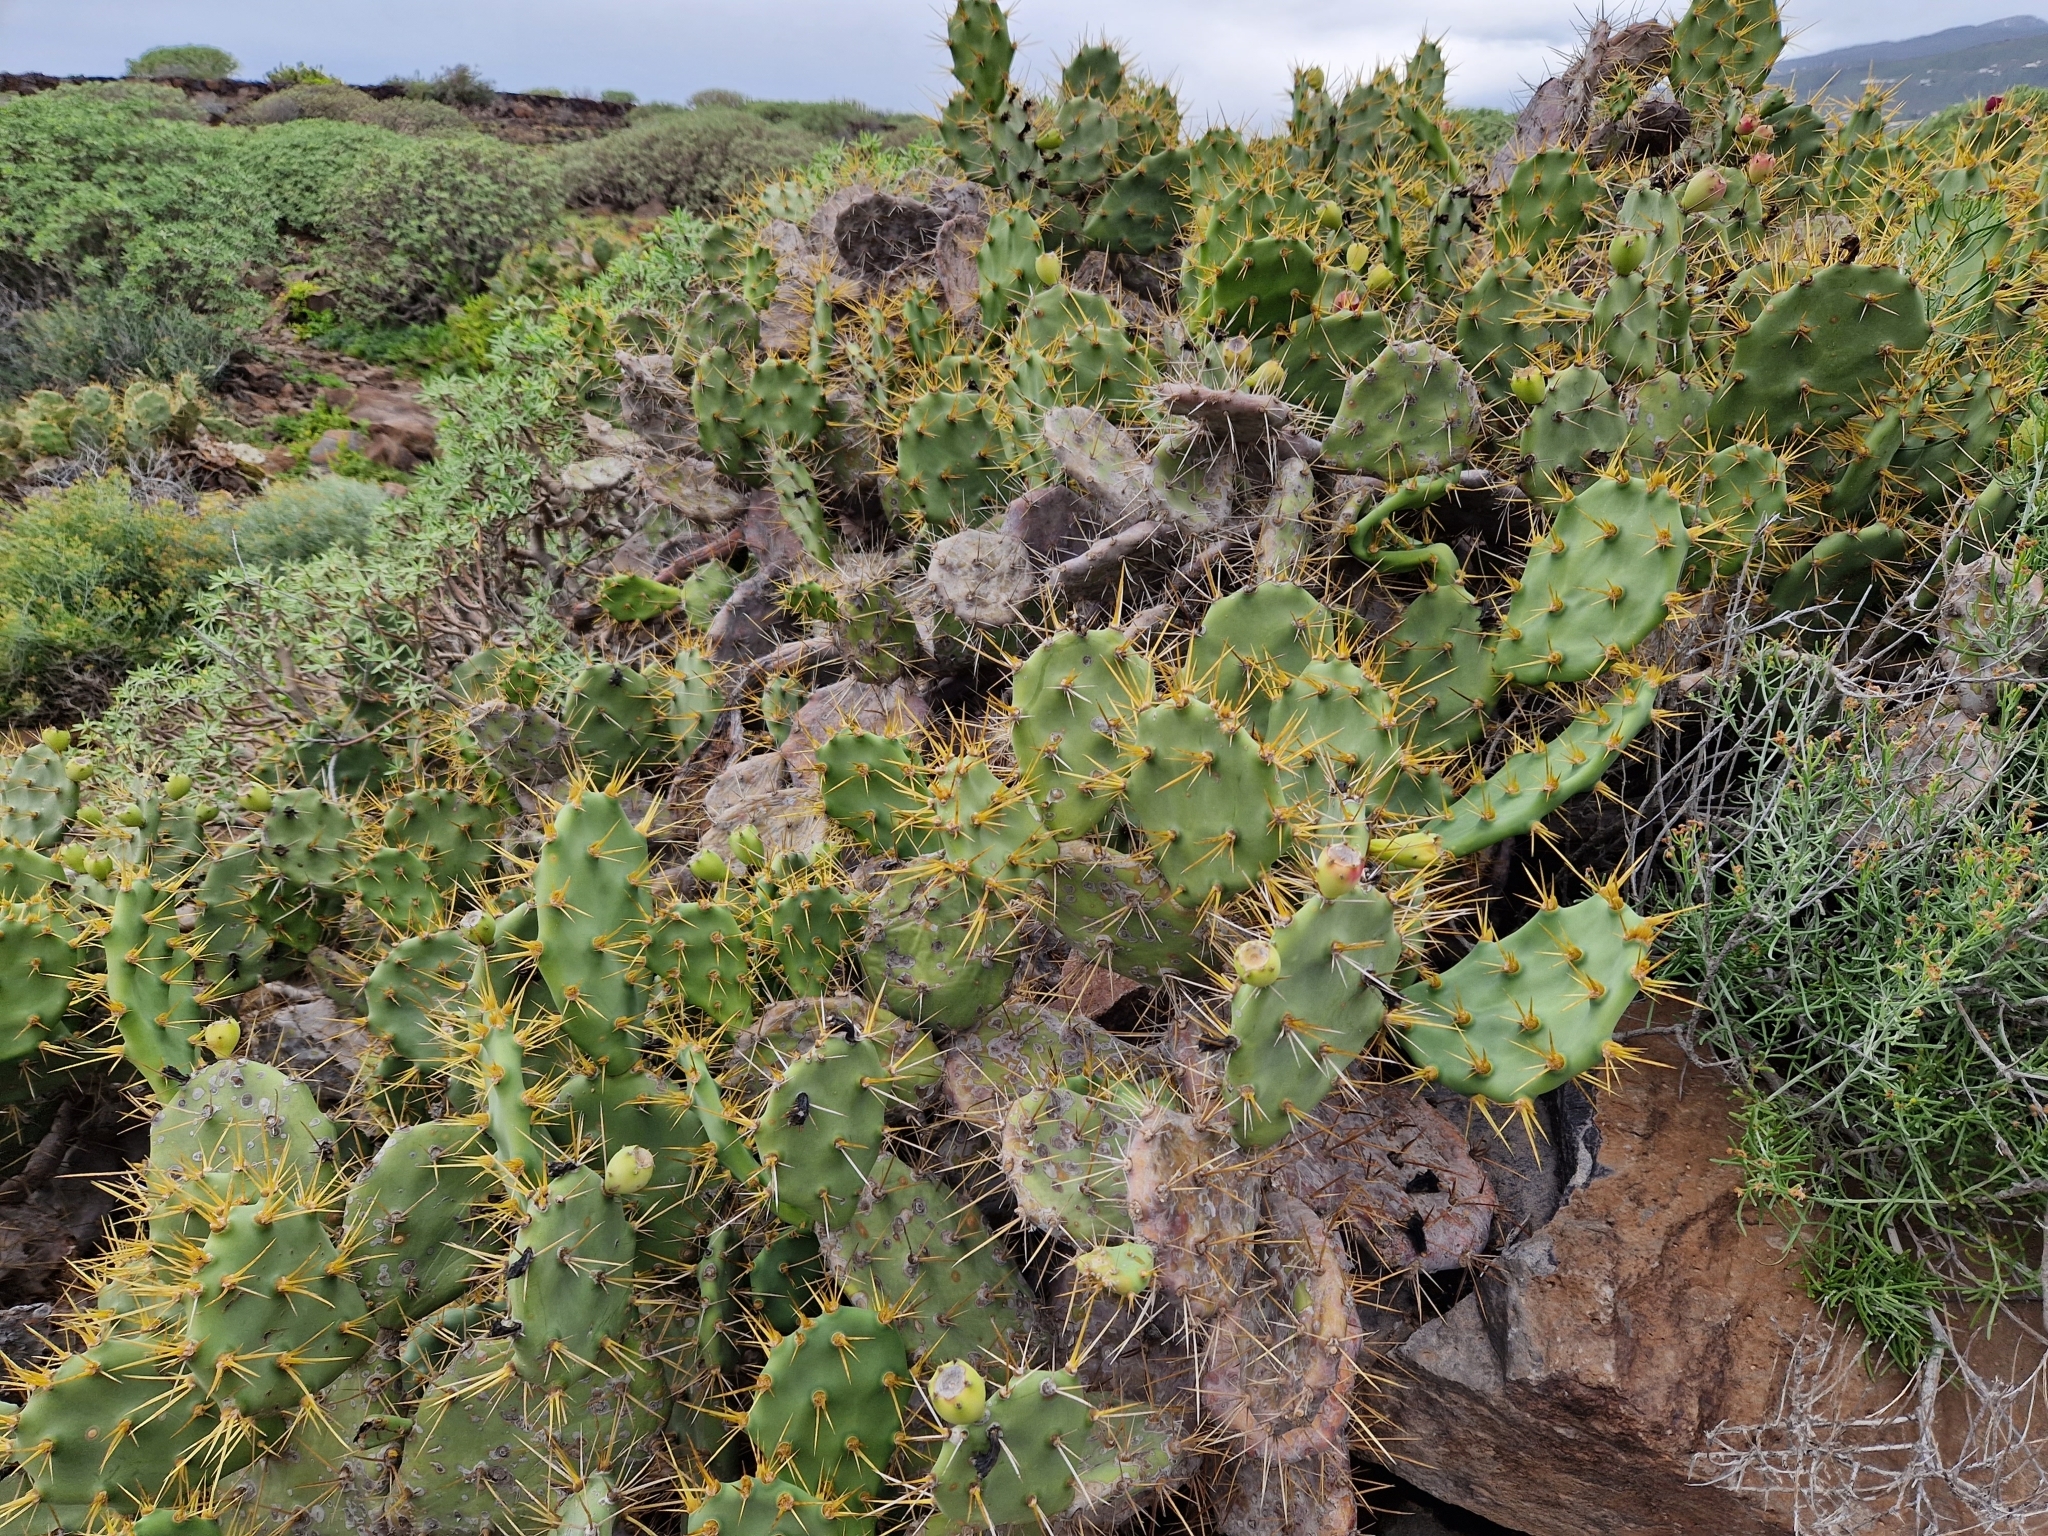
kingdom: Plantae
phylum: Tracheophyta
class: Magnoliopsida
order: Caryophyllales
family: Cactaceae
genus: Opuntia
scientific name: Opuntia stricta
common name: Erect pricklypear
